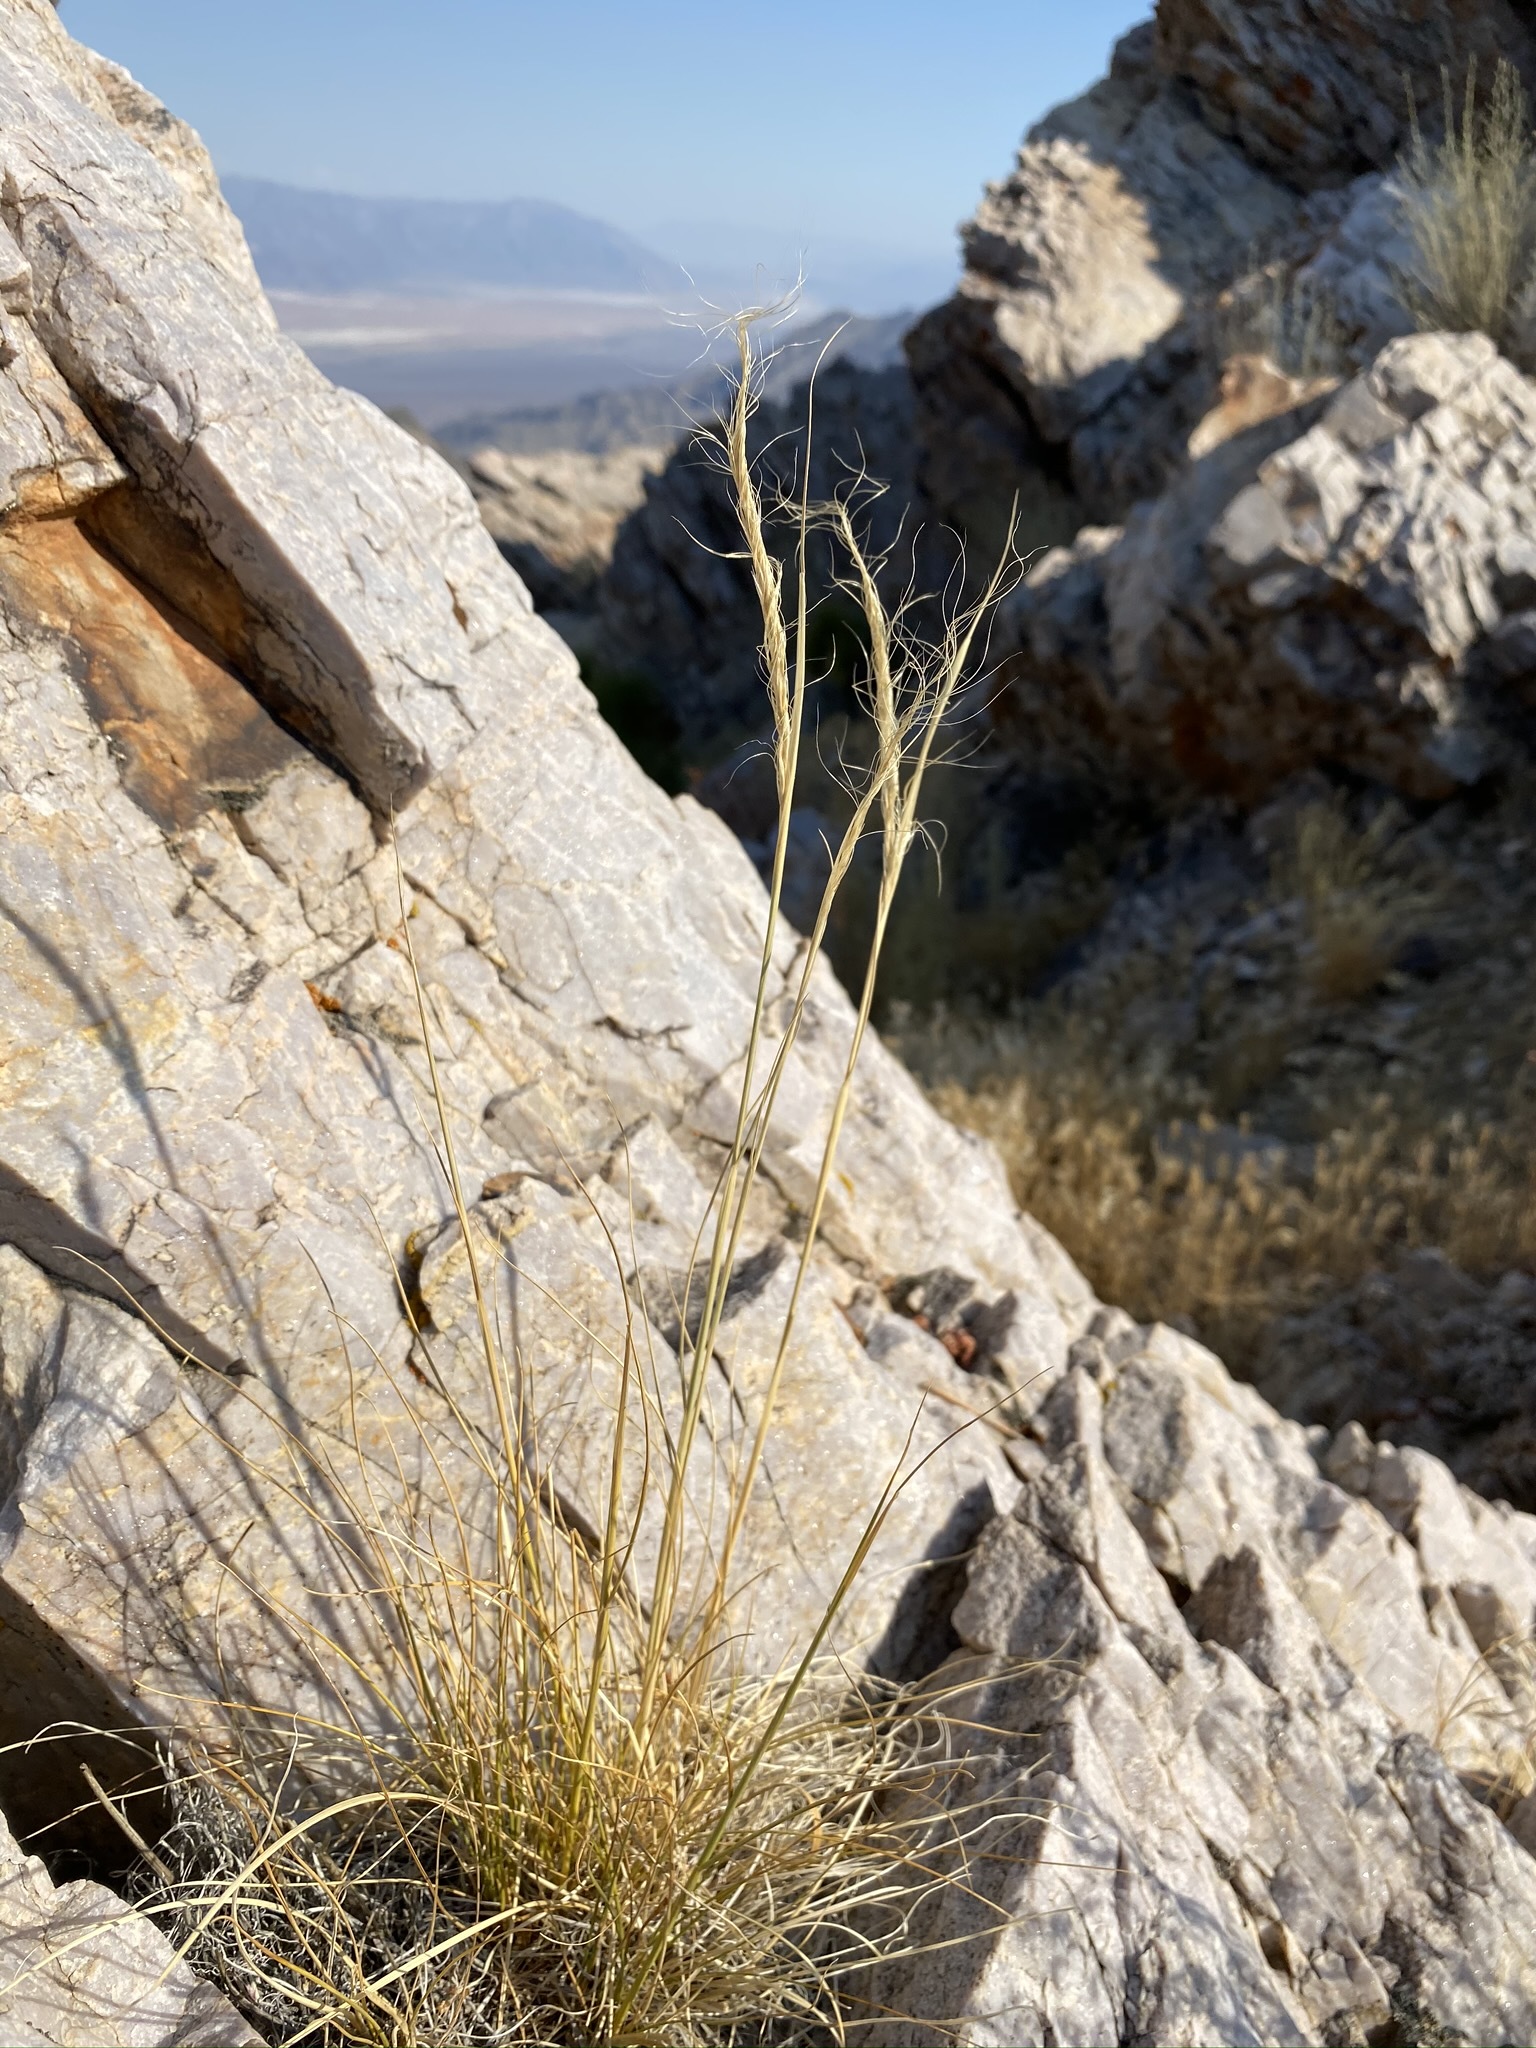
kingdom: Plantae
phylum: Tracheophyta
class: Liliopsida
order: Poales
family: Poaceae
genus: Eriocoma
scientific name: Eriocoma arida
